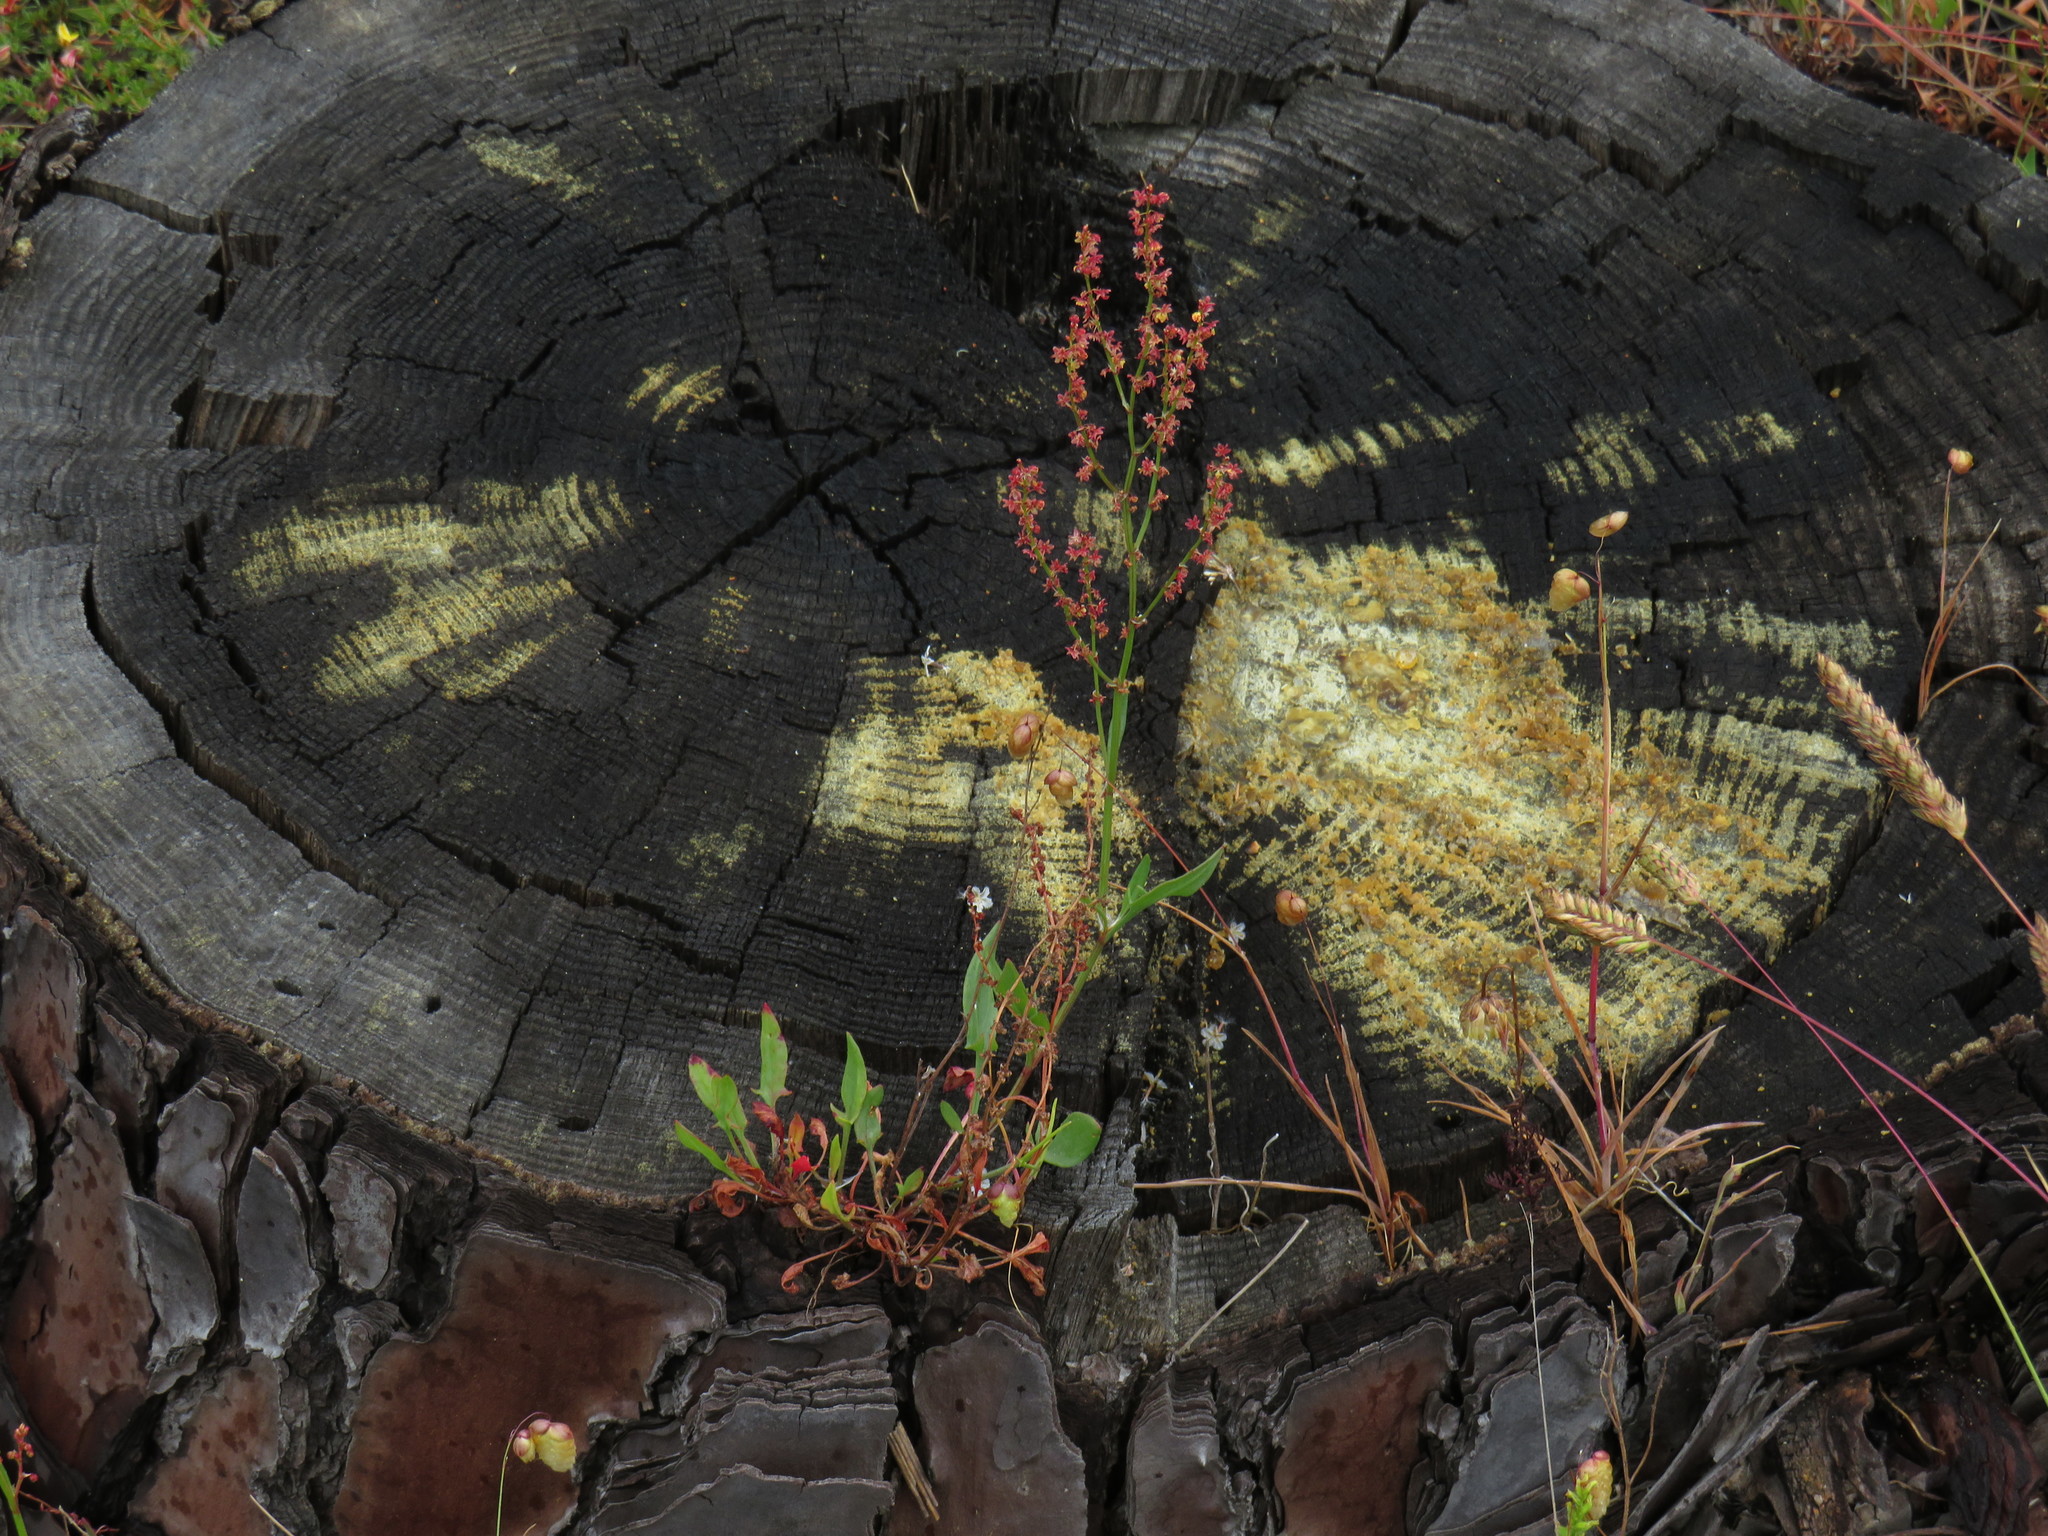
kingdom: Plantae
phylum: Tracheophyta
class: Magnoliopsida
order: Caryophyllales
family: Polygonaceae
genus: Rumex
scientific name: Rumex acetosella
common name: Common sheep sorrel
